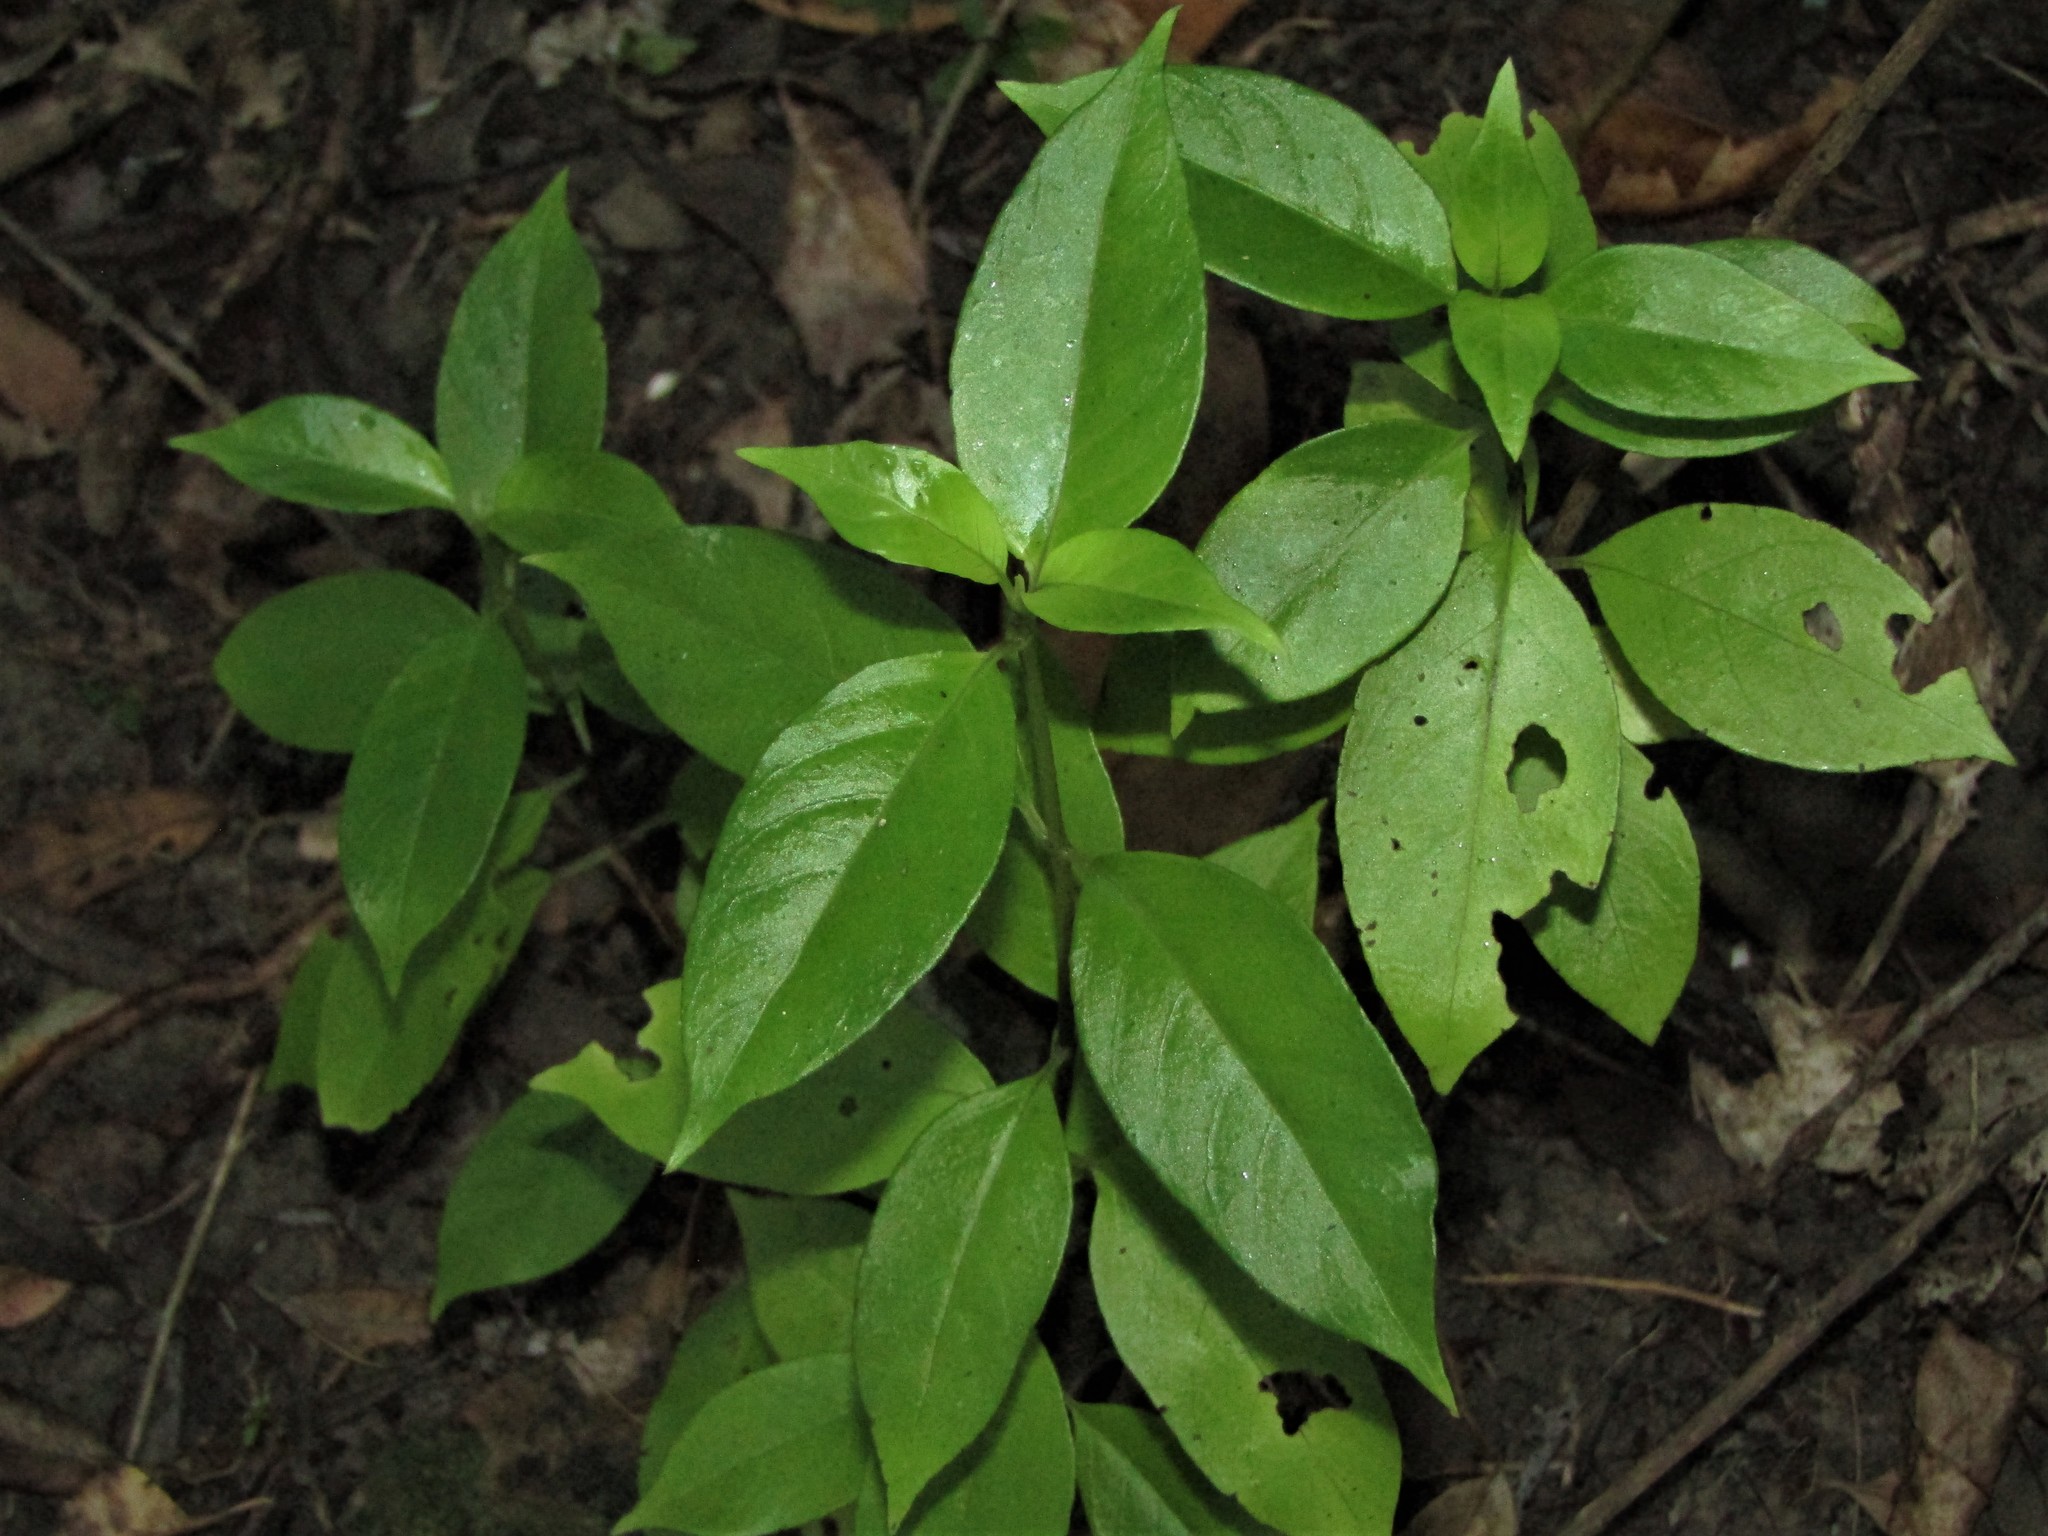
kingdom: Plantae
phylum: Tracheophyta
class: Magnoliopsida
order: Gentianales
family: Loganiaceae
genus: Geniostoma
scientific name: Geniostoma ligustrifolium
